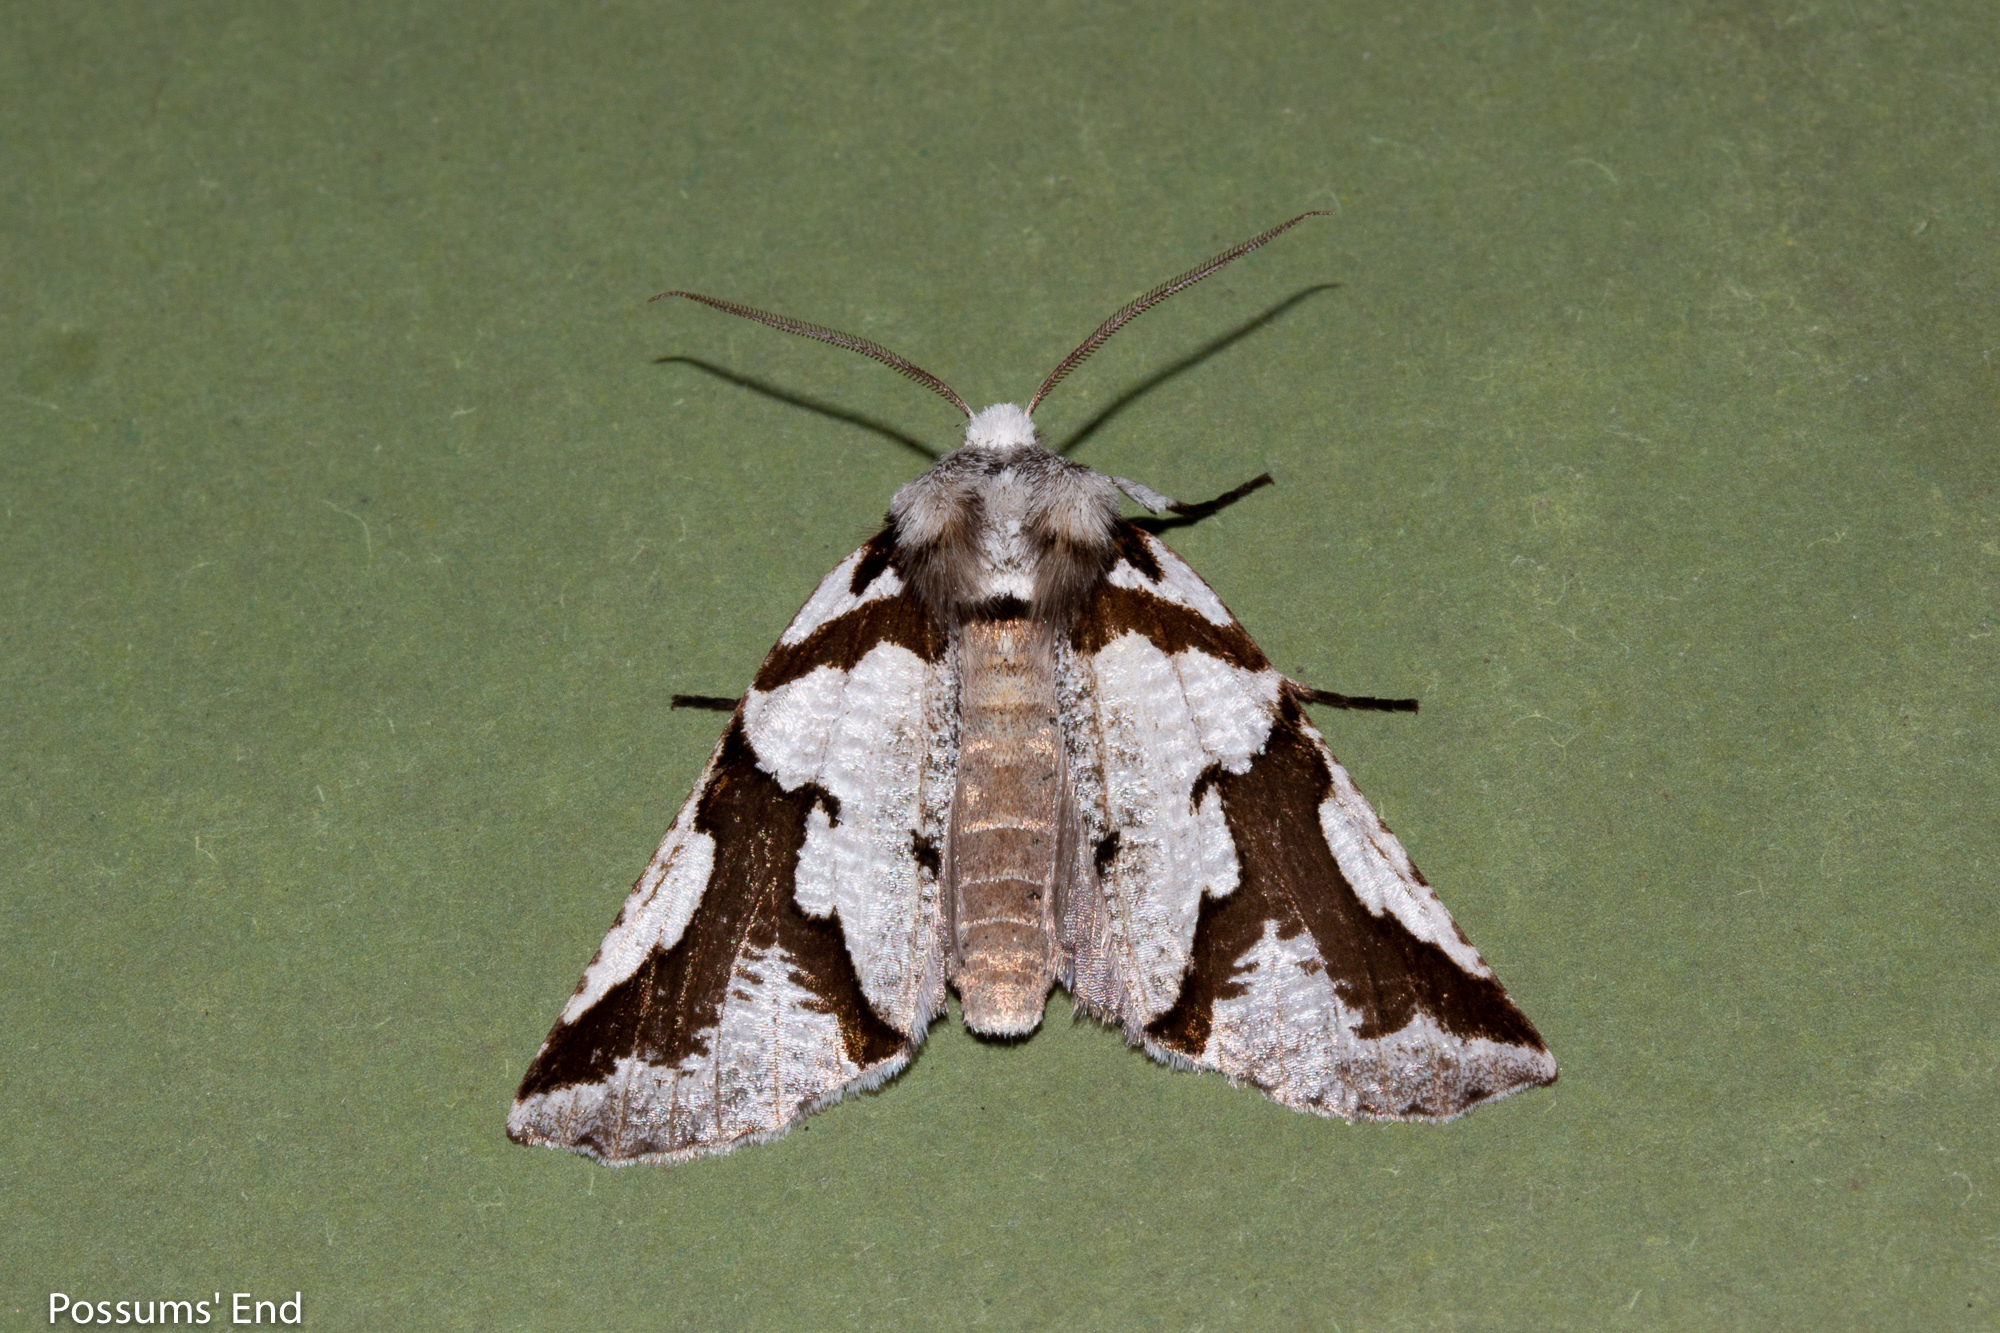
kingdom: Animalia
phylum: Arthropoda
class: Insecta
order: Lepidoptera
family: Geometridae
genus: Declana
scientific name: Declana
